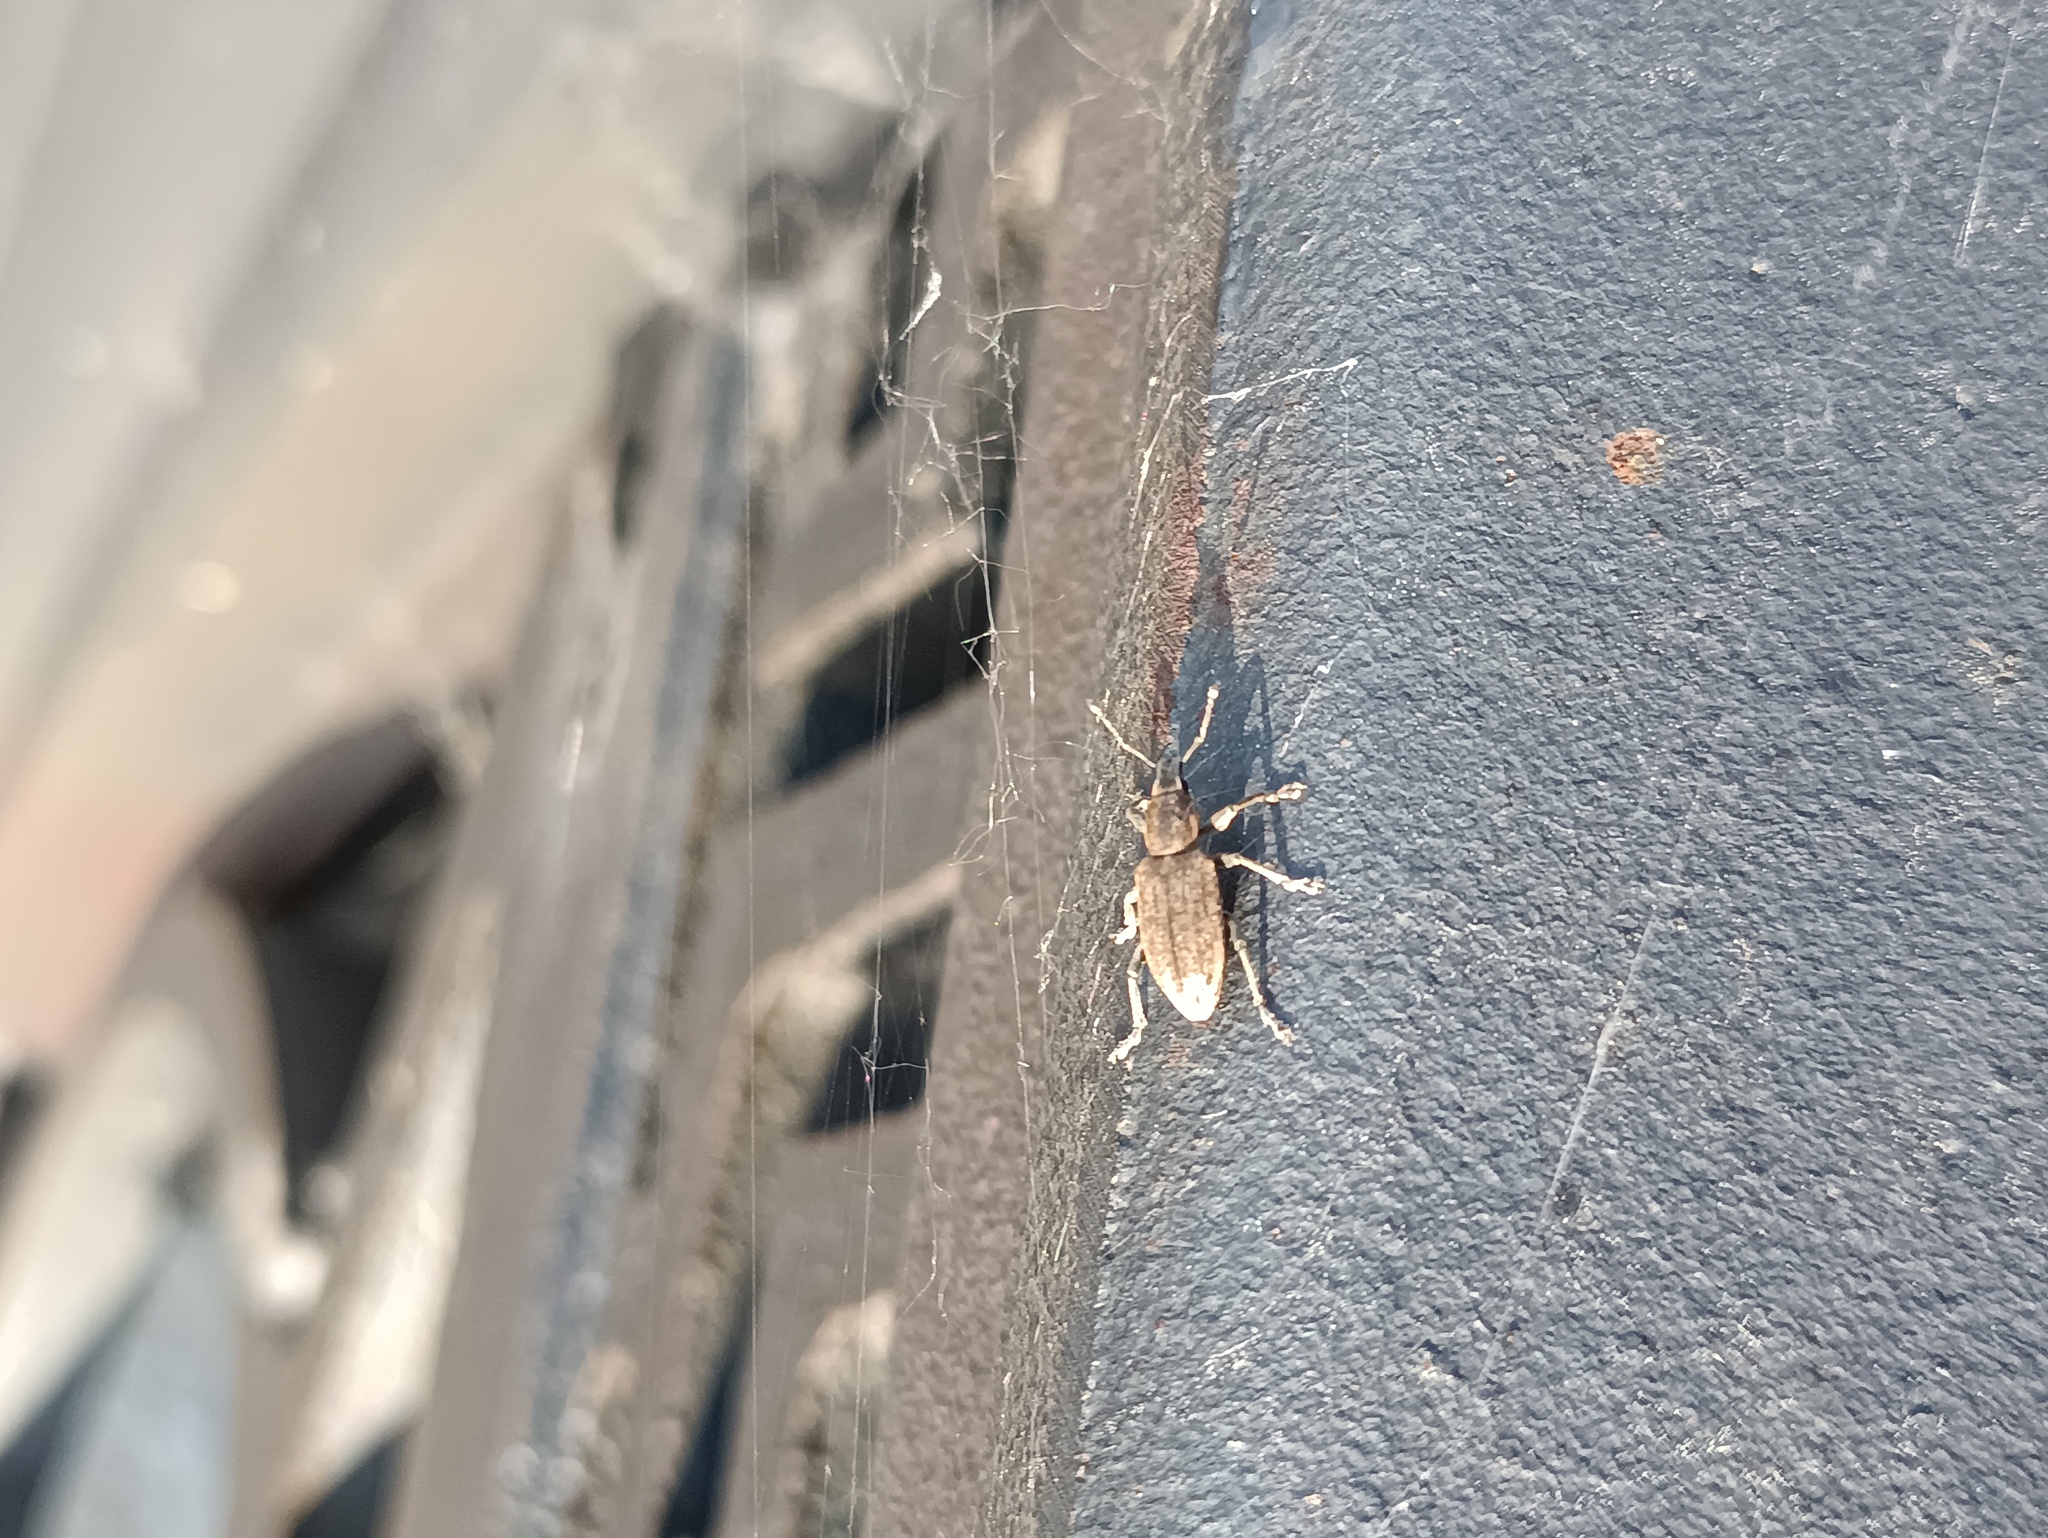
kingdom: Animalia
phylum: Arthropoda
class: Insecta
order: Coleoptera
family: Curculionidae
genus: Tanymecus
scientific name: Tanymecus palliatus
